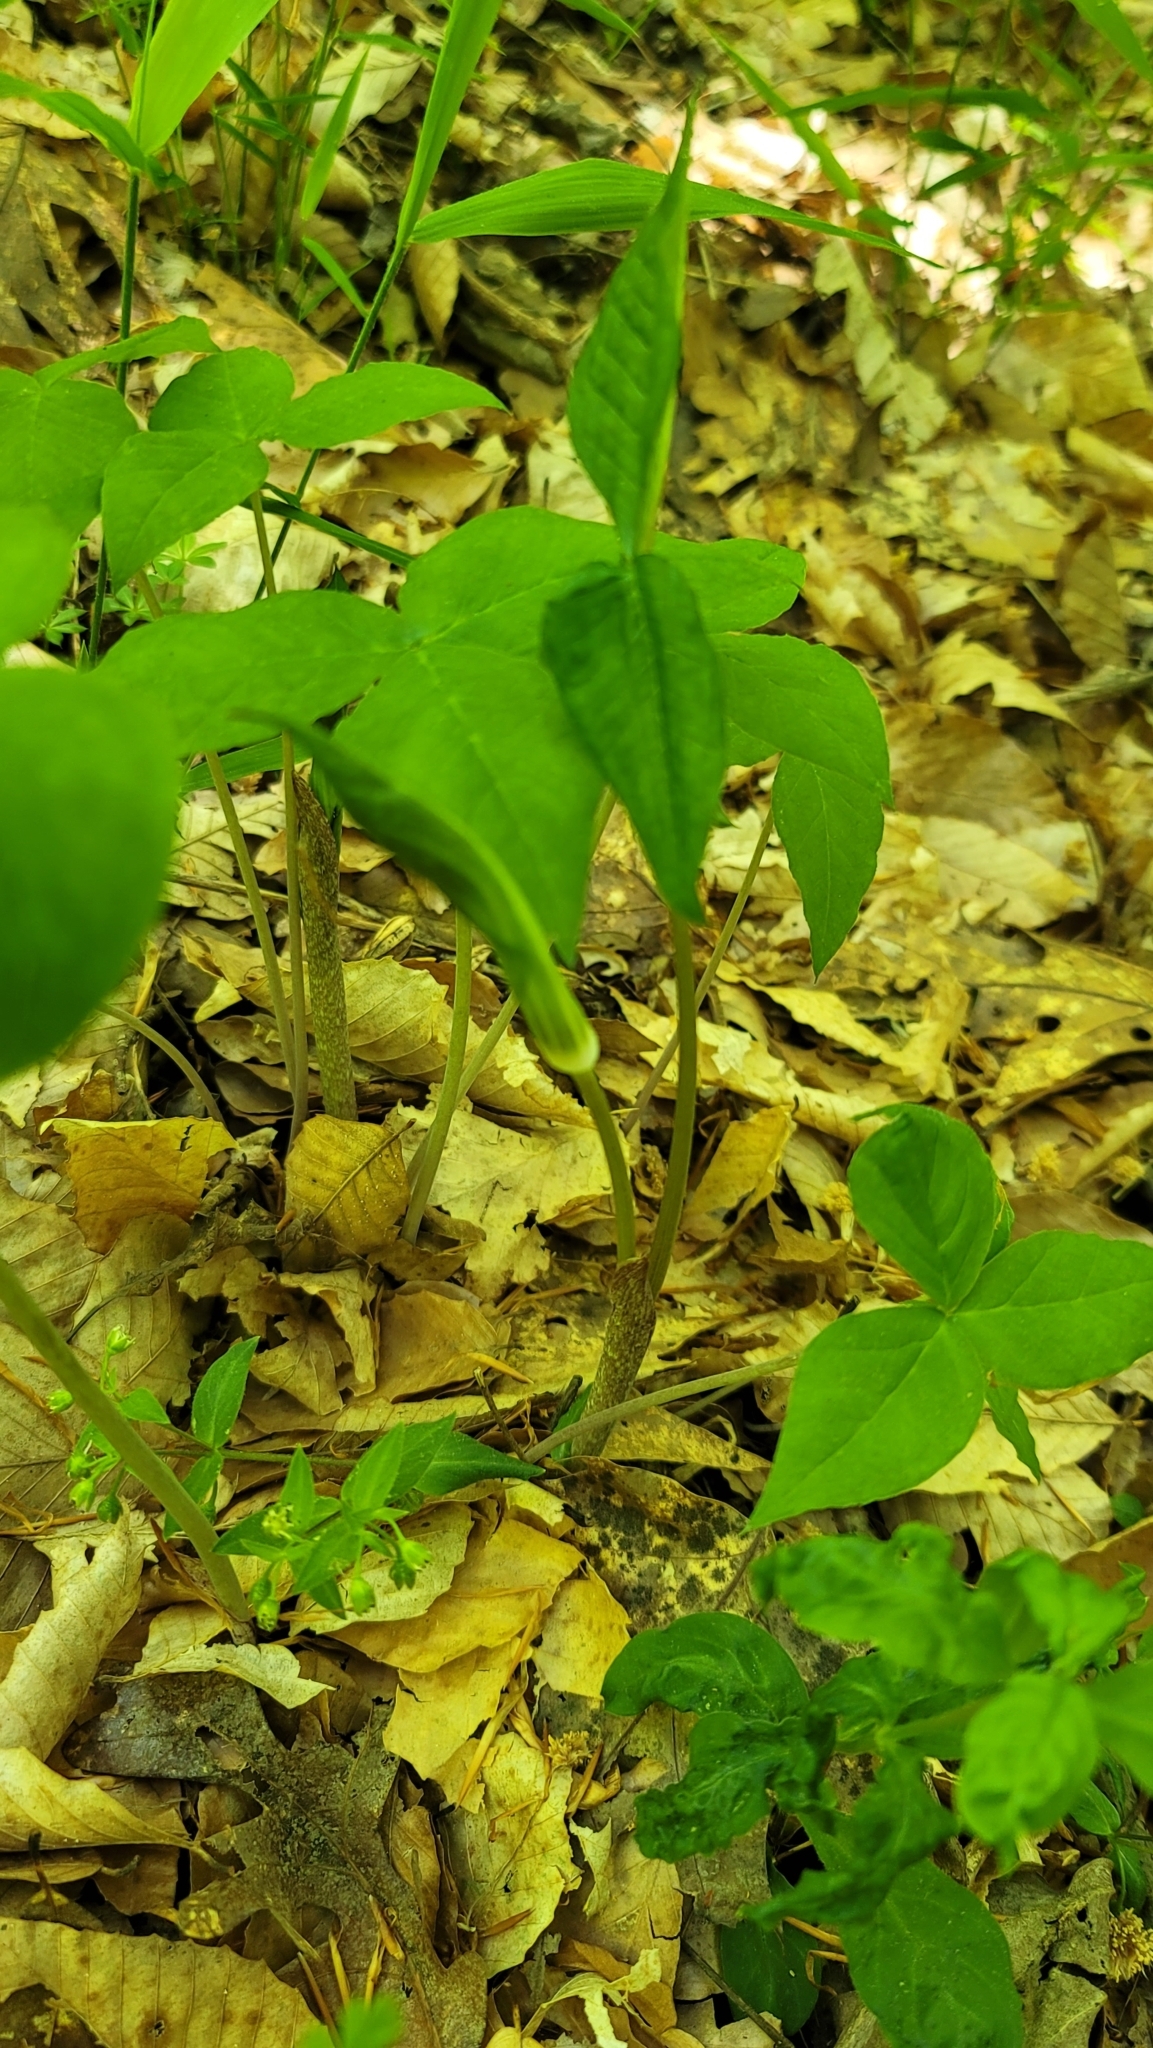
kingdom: Plantae
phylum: Tracheophyta
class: Liliopsida
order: Alismatales
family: Araceae
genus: Arisaema
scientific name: Arisaema triphyllum
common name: Jack-in-the-pulpit
